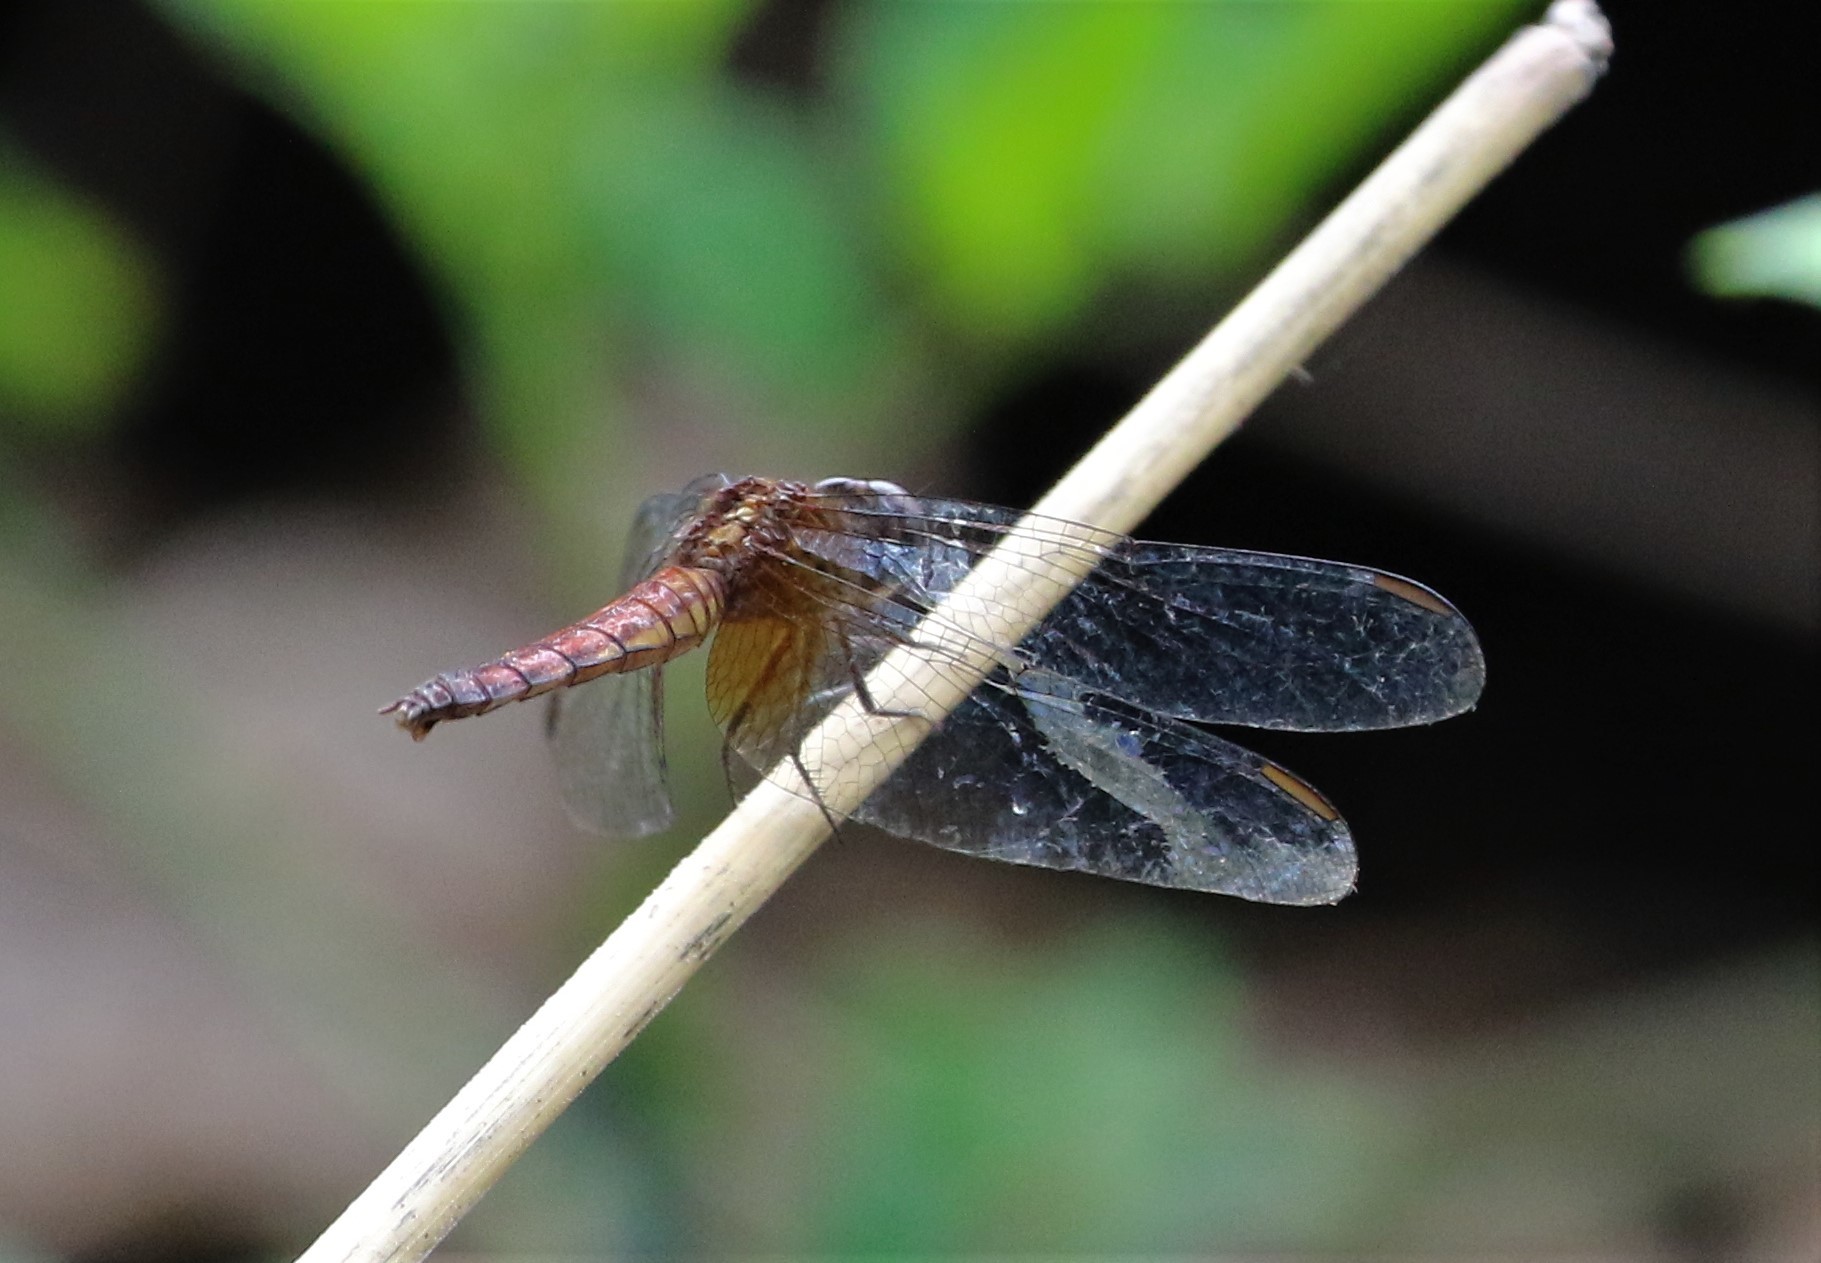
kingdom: Animalia
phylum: Arthropoda
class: Insecta
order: Odonata
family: Libellulidae
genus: Erythrodiplax
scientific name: Erythrodiplax fusca
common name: Red-faced dragonlet
